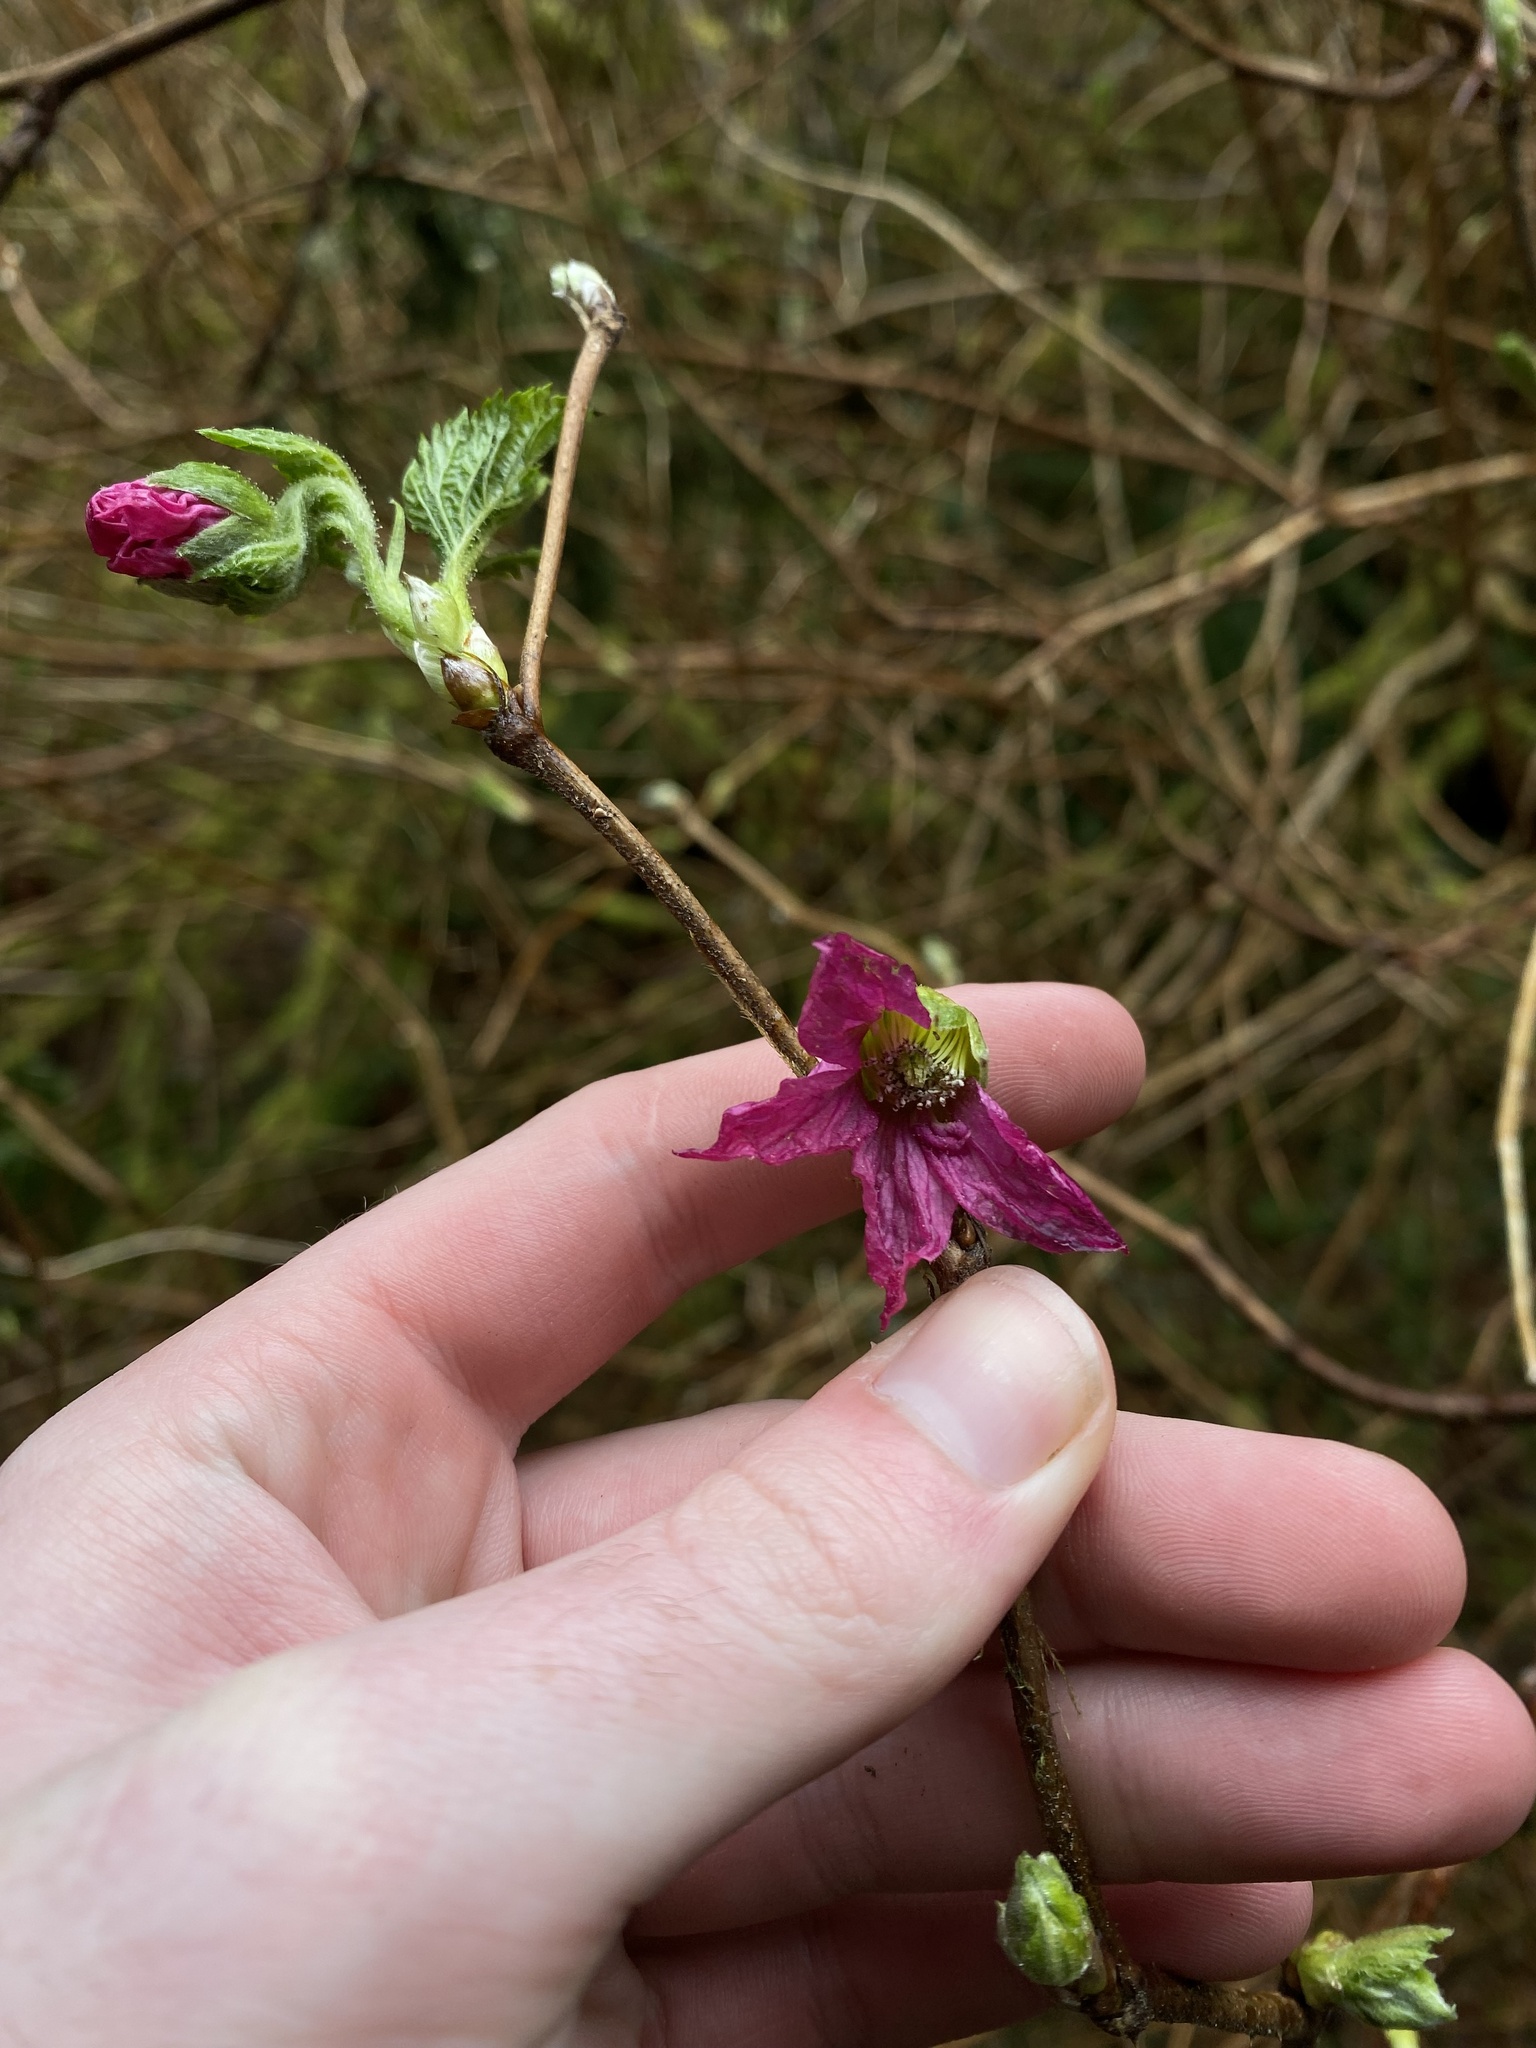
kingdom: Plantae
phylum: Tracheophyta
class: Magnoliopsida
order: Rosales
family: Rosaceae
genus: Rubus
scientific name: Rubus spectabilis
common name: Salmonberry
